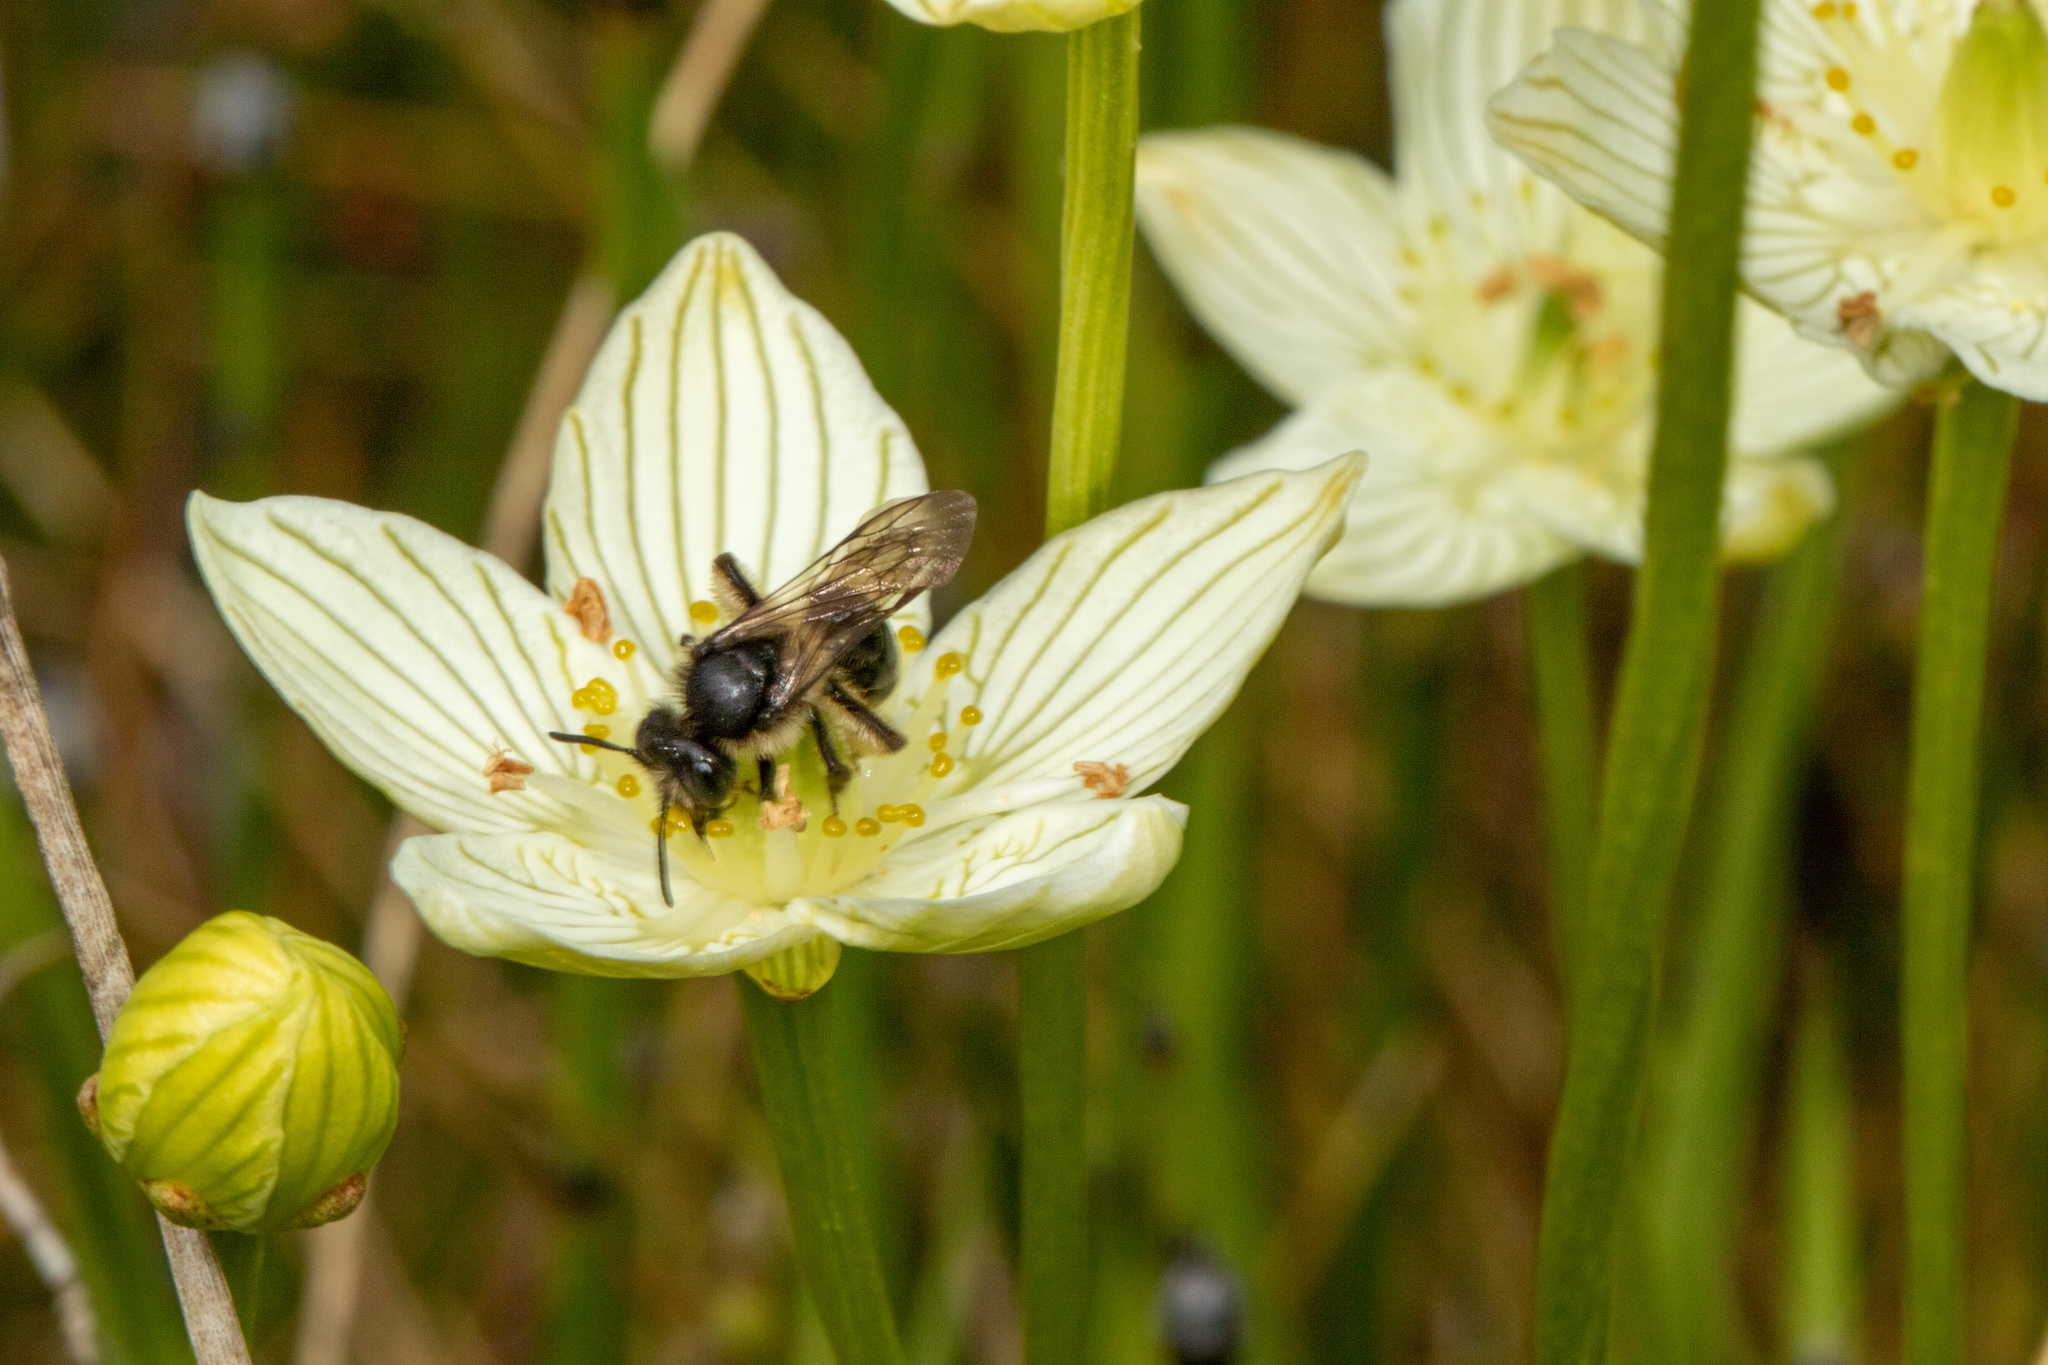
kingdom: Animalia
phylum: Arthropoda
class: Insecta
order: Hymenoptera
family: Andrenidae
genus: Andrena
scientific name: Andrena parnassiae
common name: Parnassia miner
